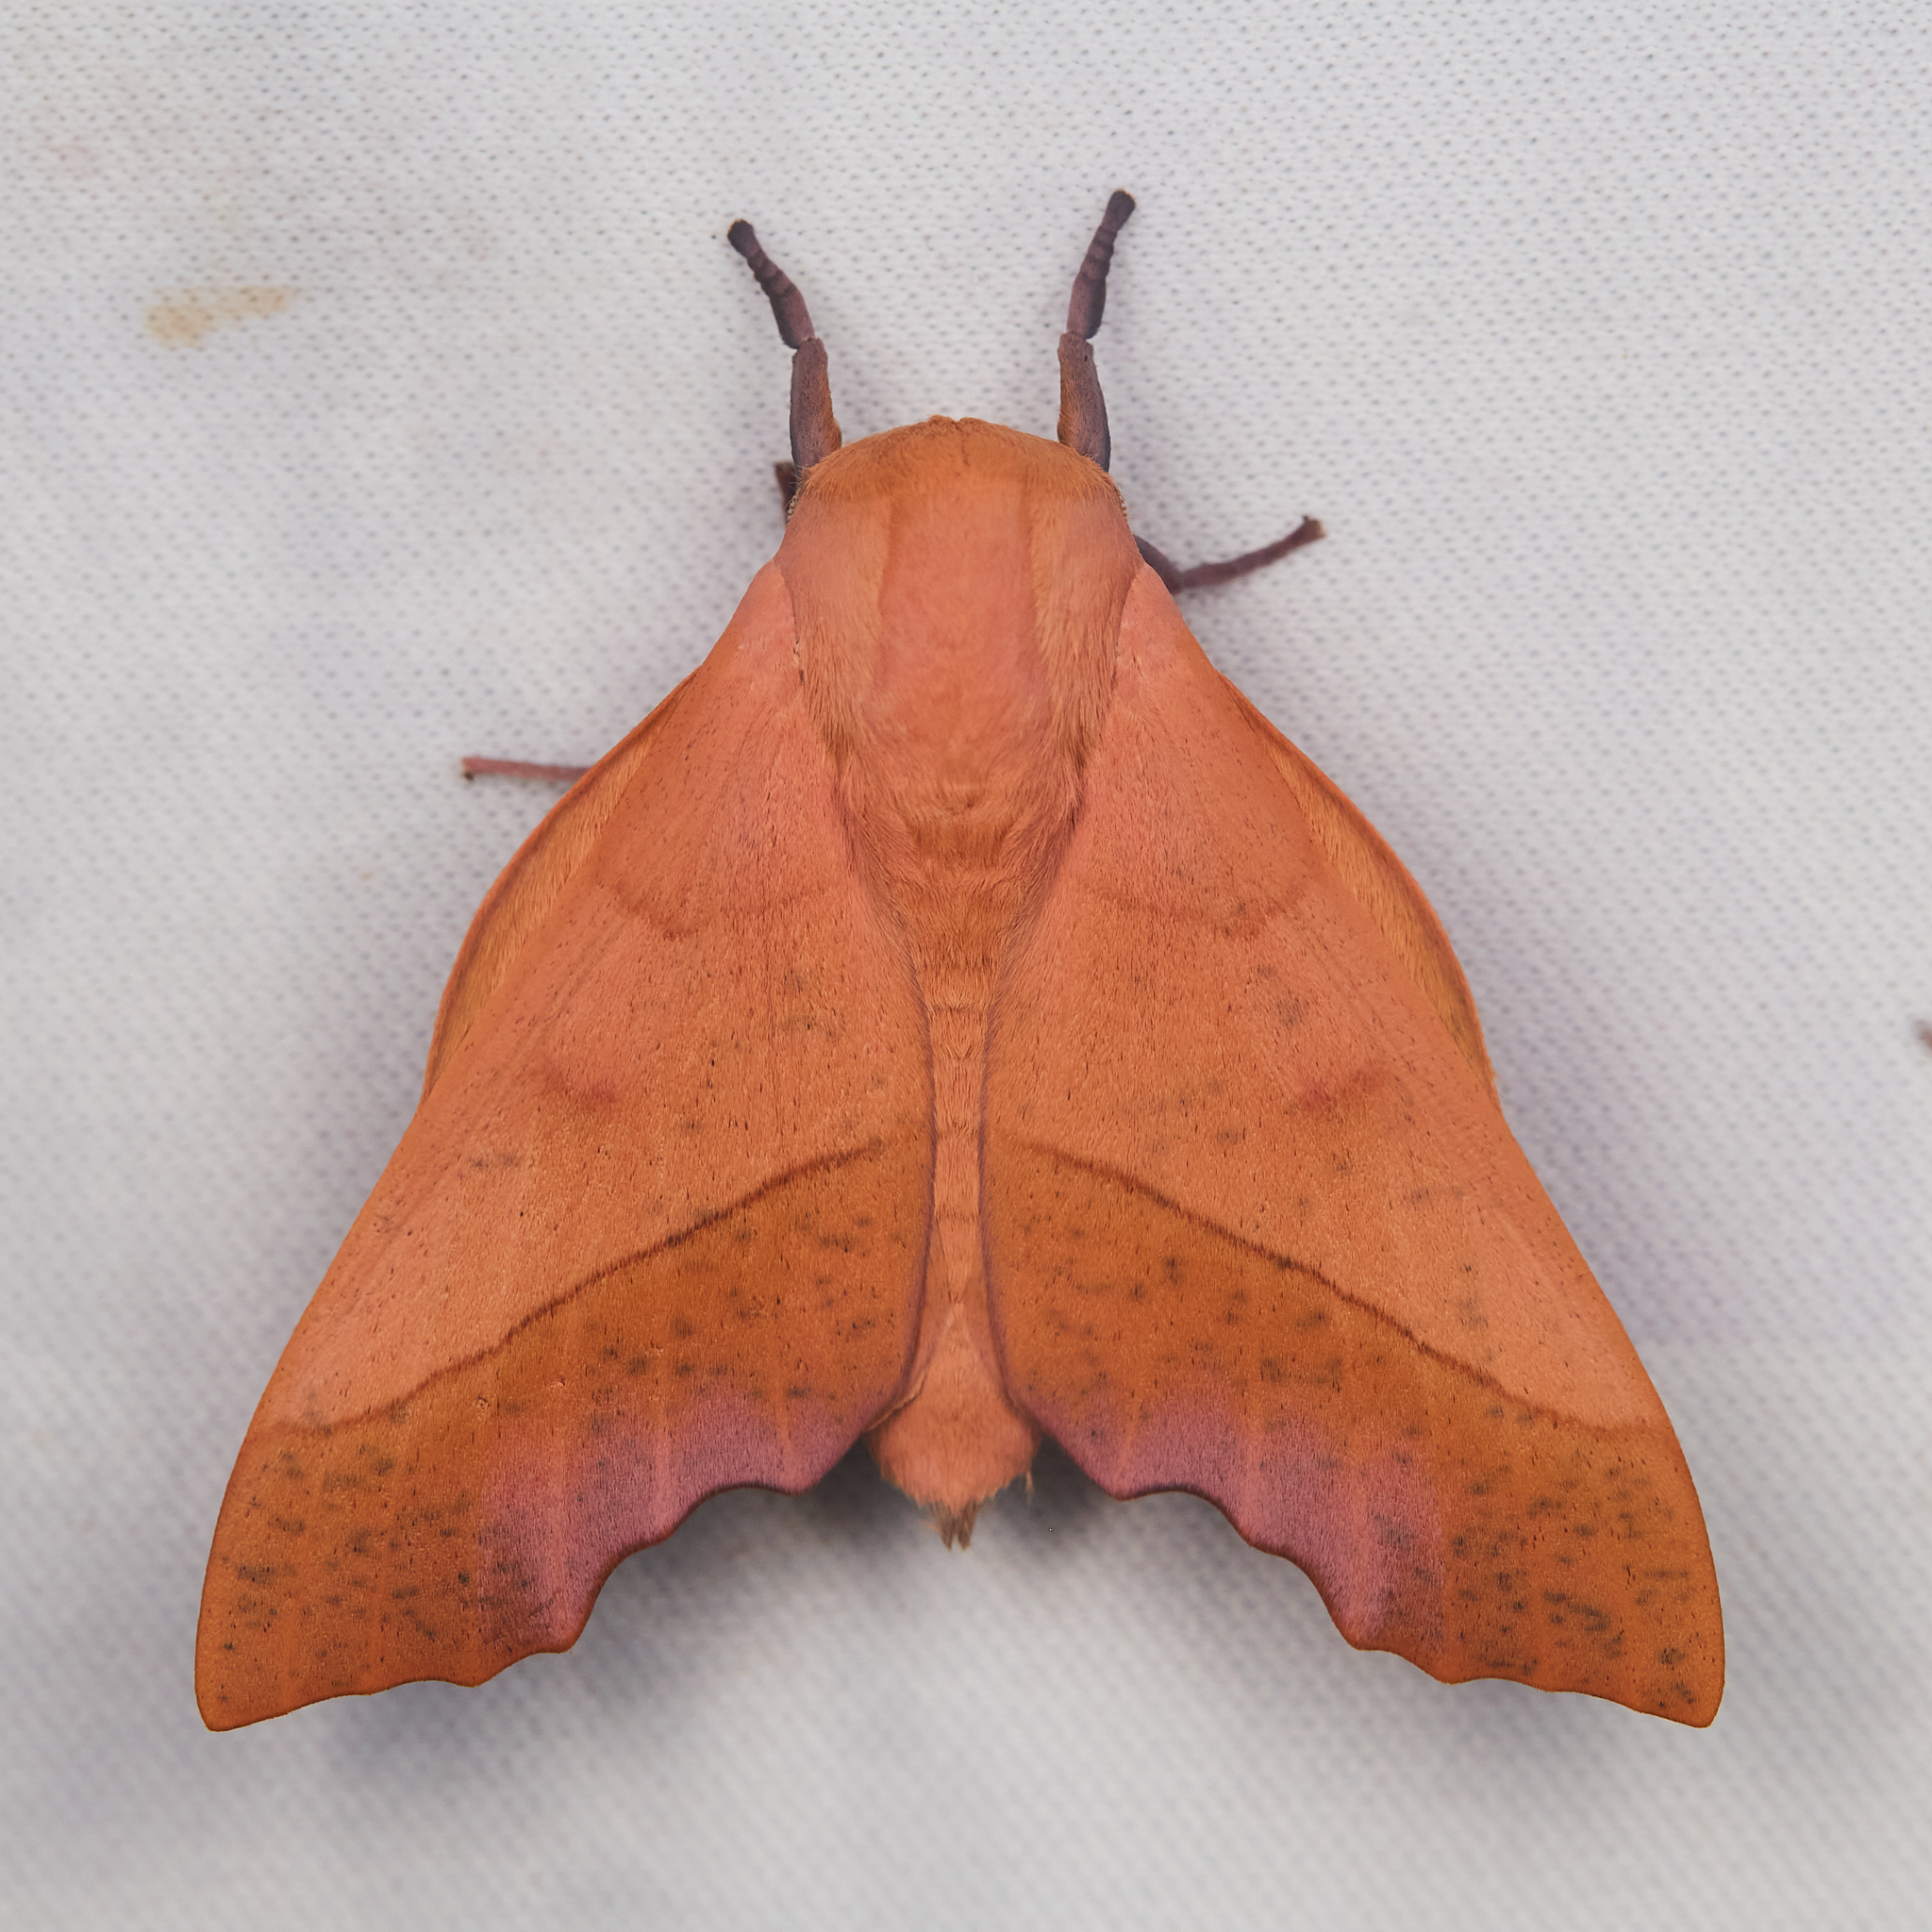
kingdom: Animalia
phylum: Arthropoda
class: Insecta
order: Lepidoptera
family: Saturniidae
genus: Syssphinx
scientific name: Syssphinx molina
